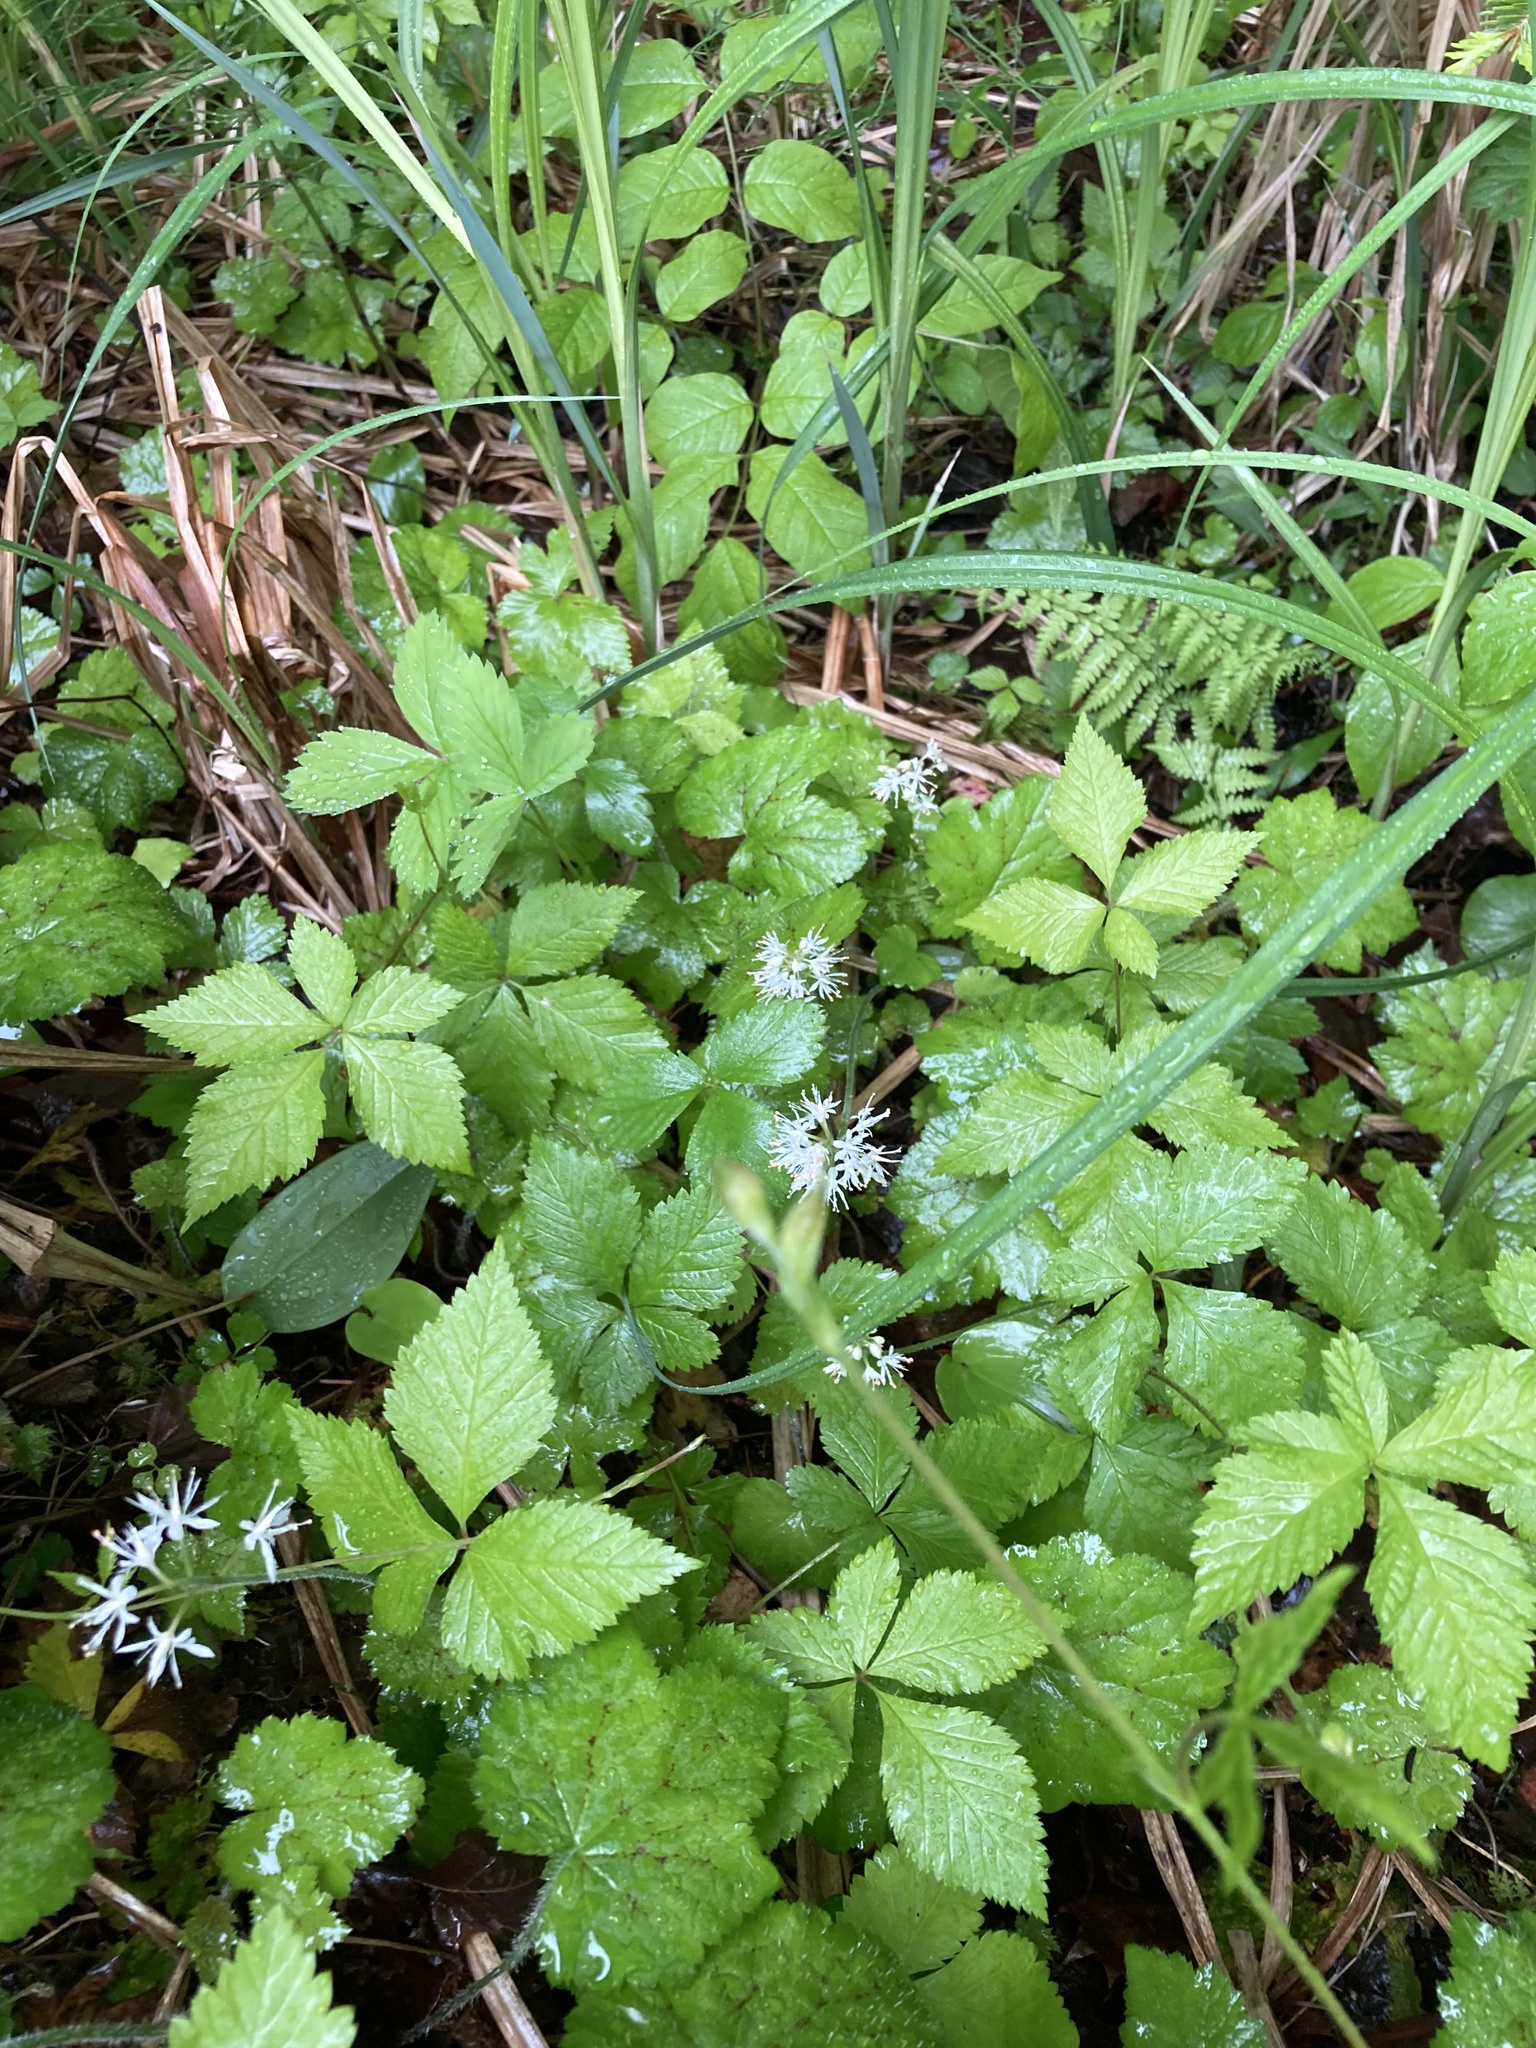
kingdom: Plantae
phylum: Tracheophyta
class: Magnoliopsida
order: Saxifragales
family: Saxifragaceae
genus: Tiarella
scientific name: Tiarella stolonifera
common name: Stoloniferous foamflower
